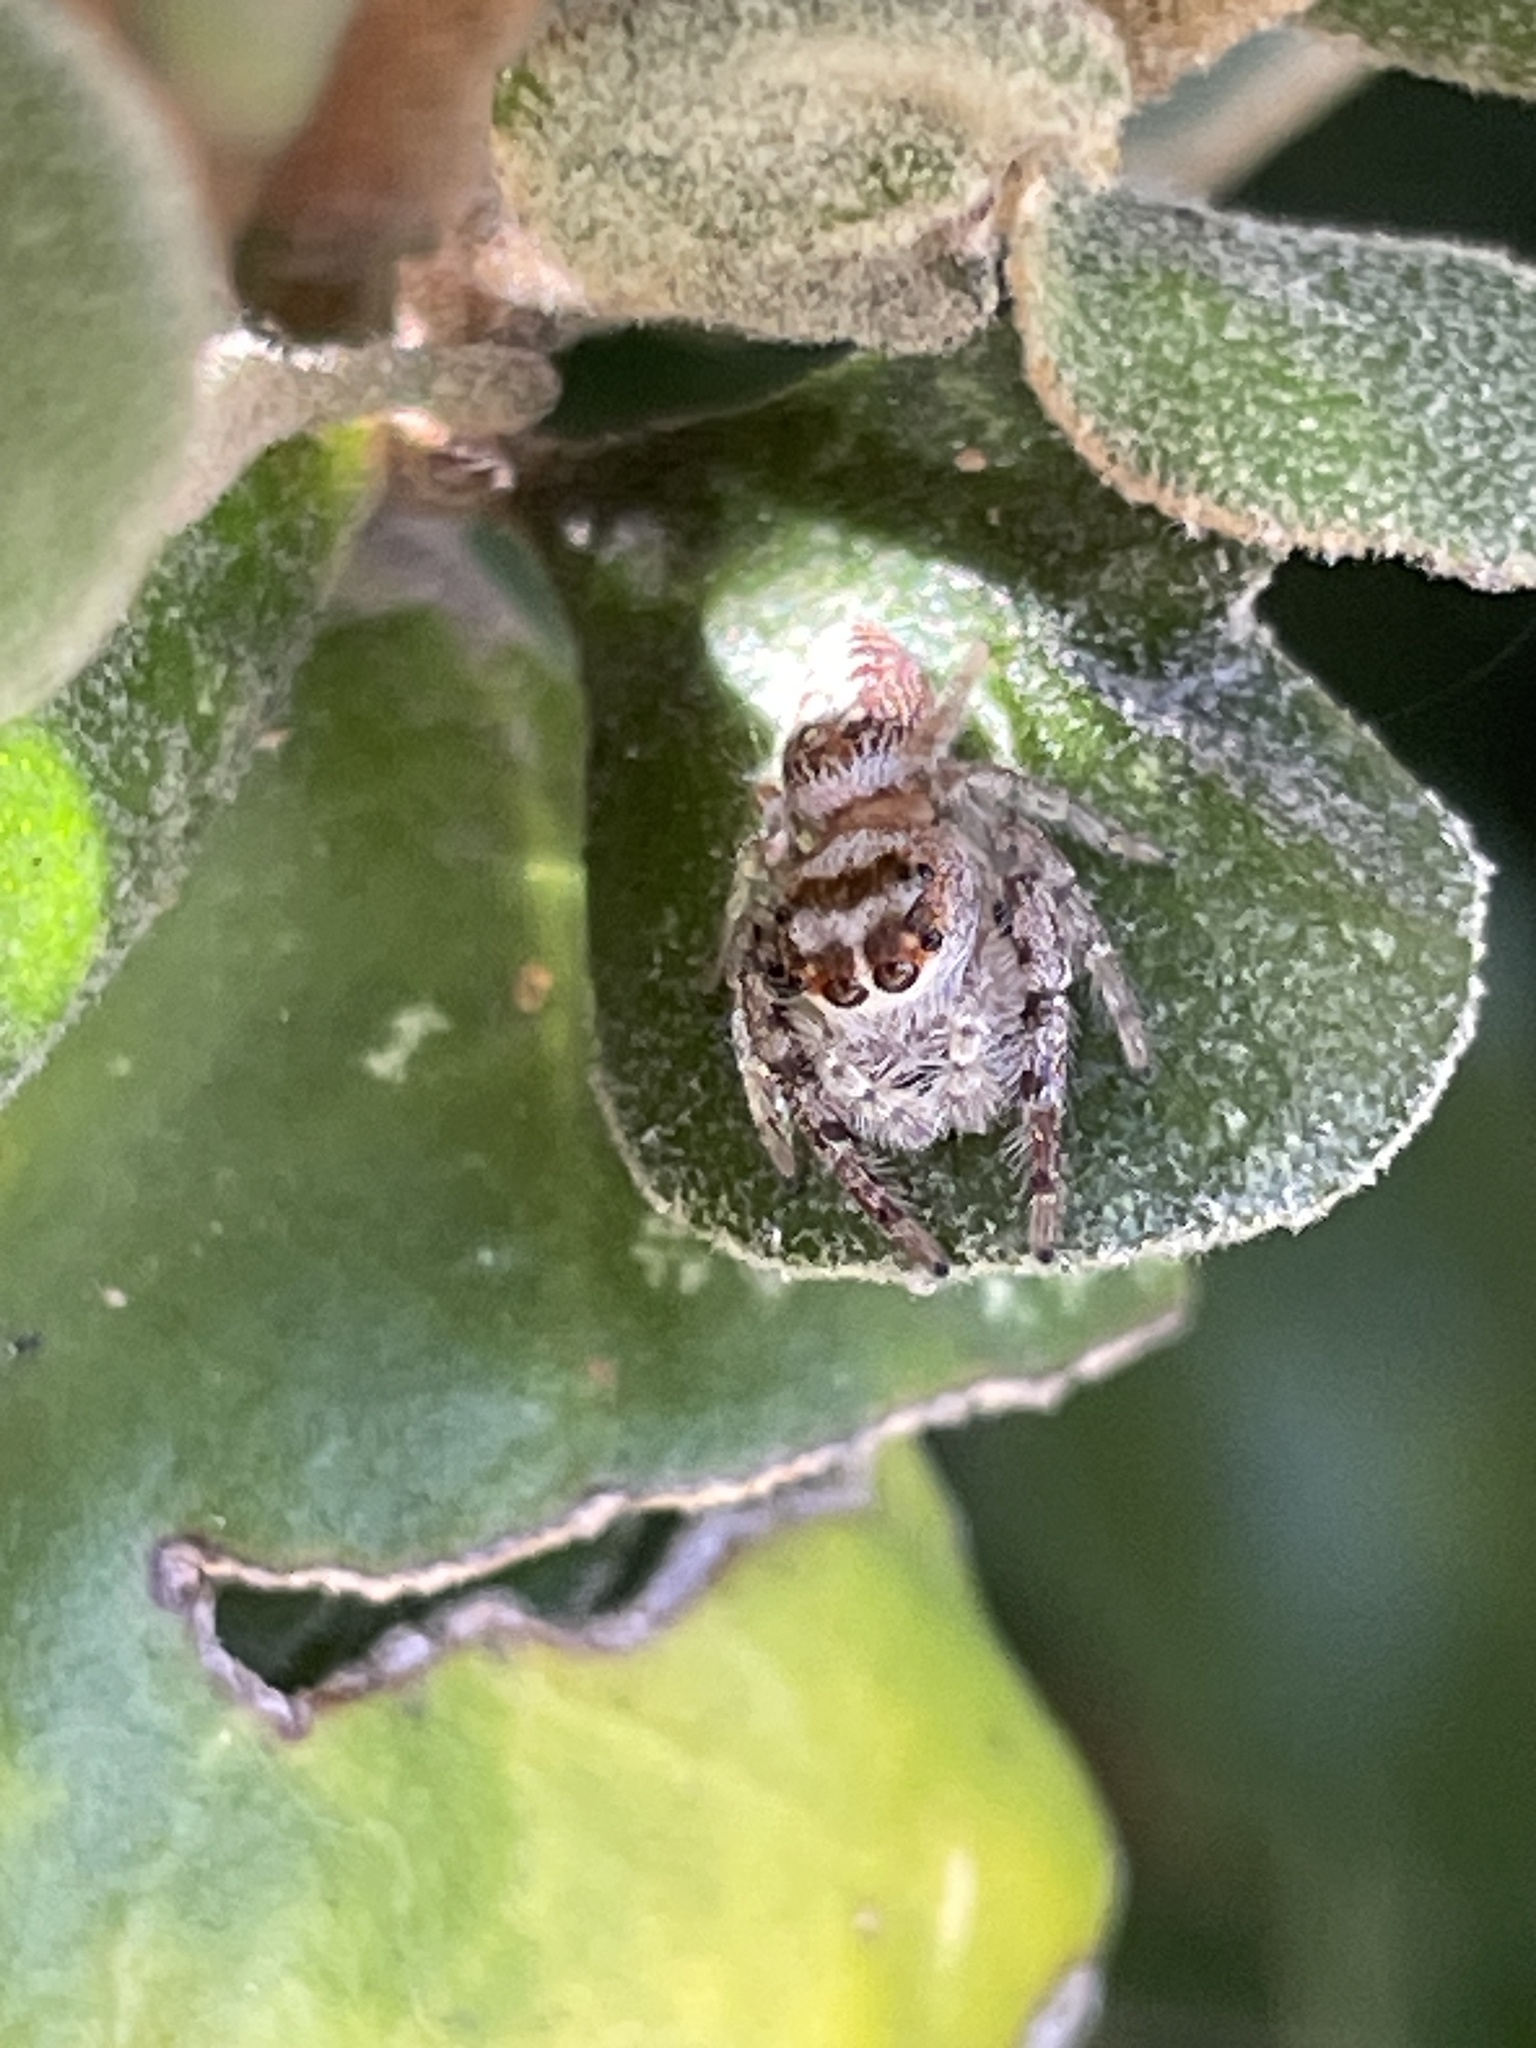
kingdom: Animalia
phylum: Arthropoda
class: Arachnida
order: Araneae
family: Salticidae
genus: Opisthoncus
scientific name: Opisthoncus nigrofemoratus
